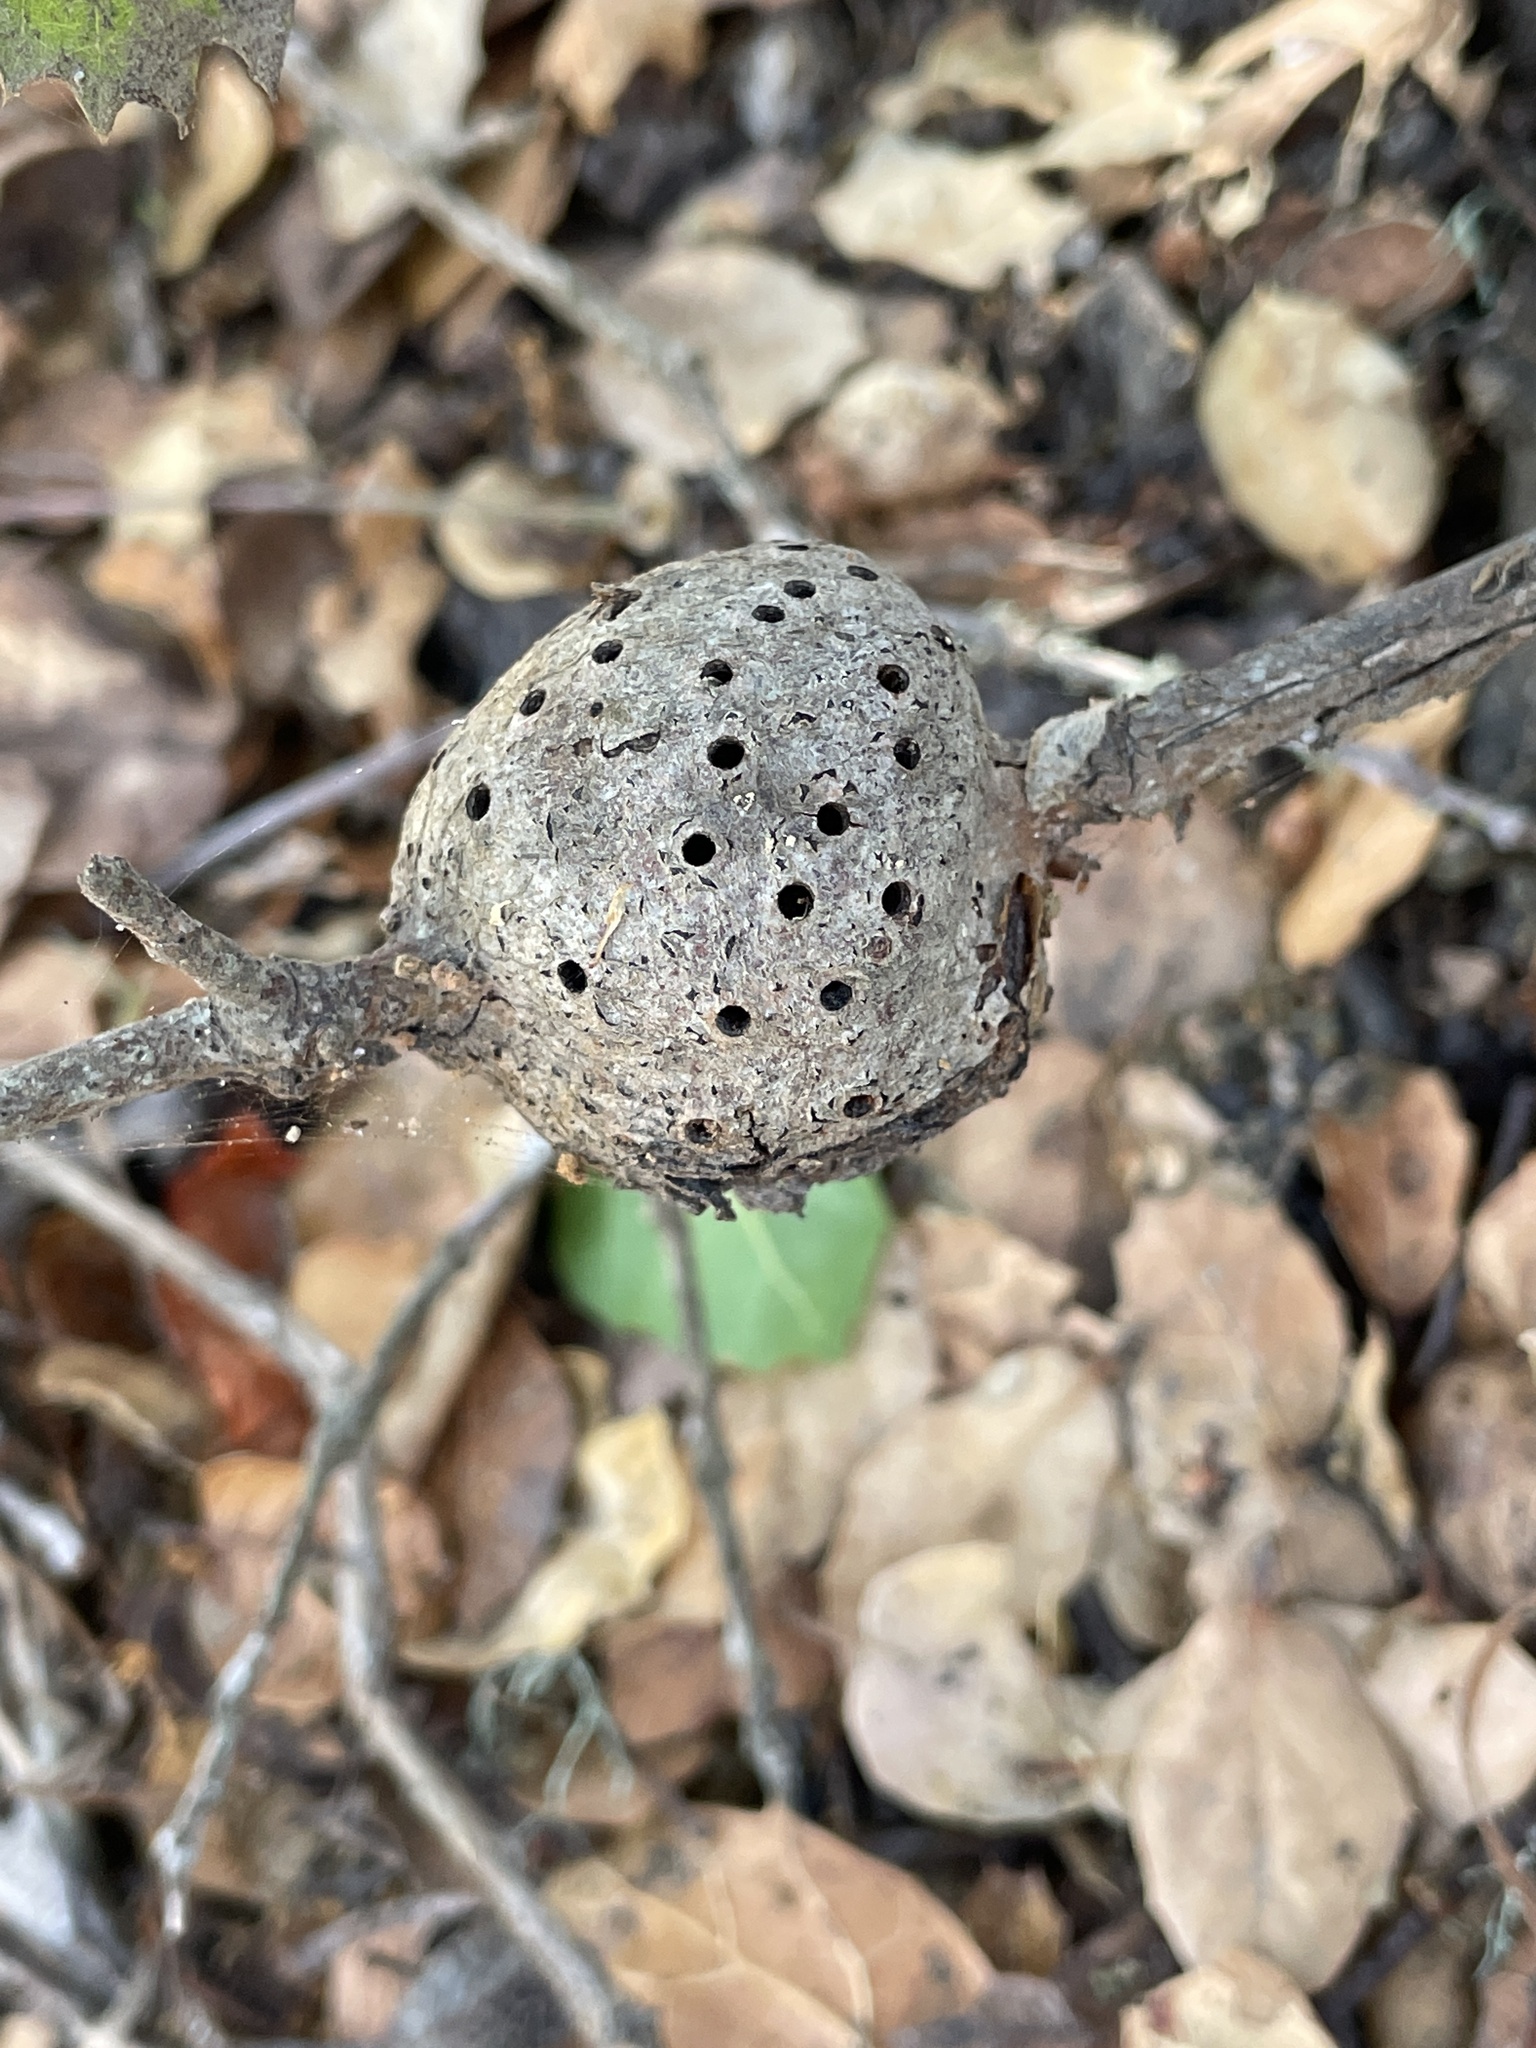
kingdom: Animalia
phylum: Arthropoda
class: Insecta
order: Hymenoptera
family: Cynipidae
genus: Callirhytis
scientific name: Callirhytis
